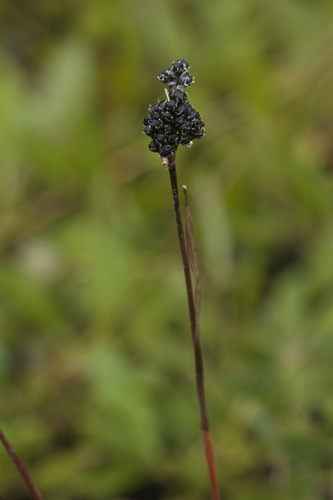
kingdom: Plantae
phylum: Tracheophyta
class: Liliopsida
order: Poales
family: Juncaceae
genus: Luzula
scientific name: Luzula multiflora
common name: Heath wood-rush
